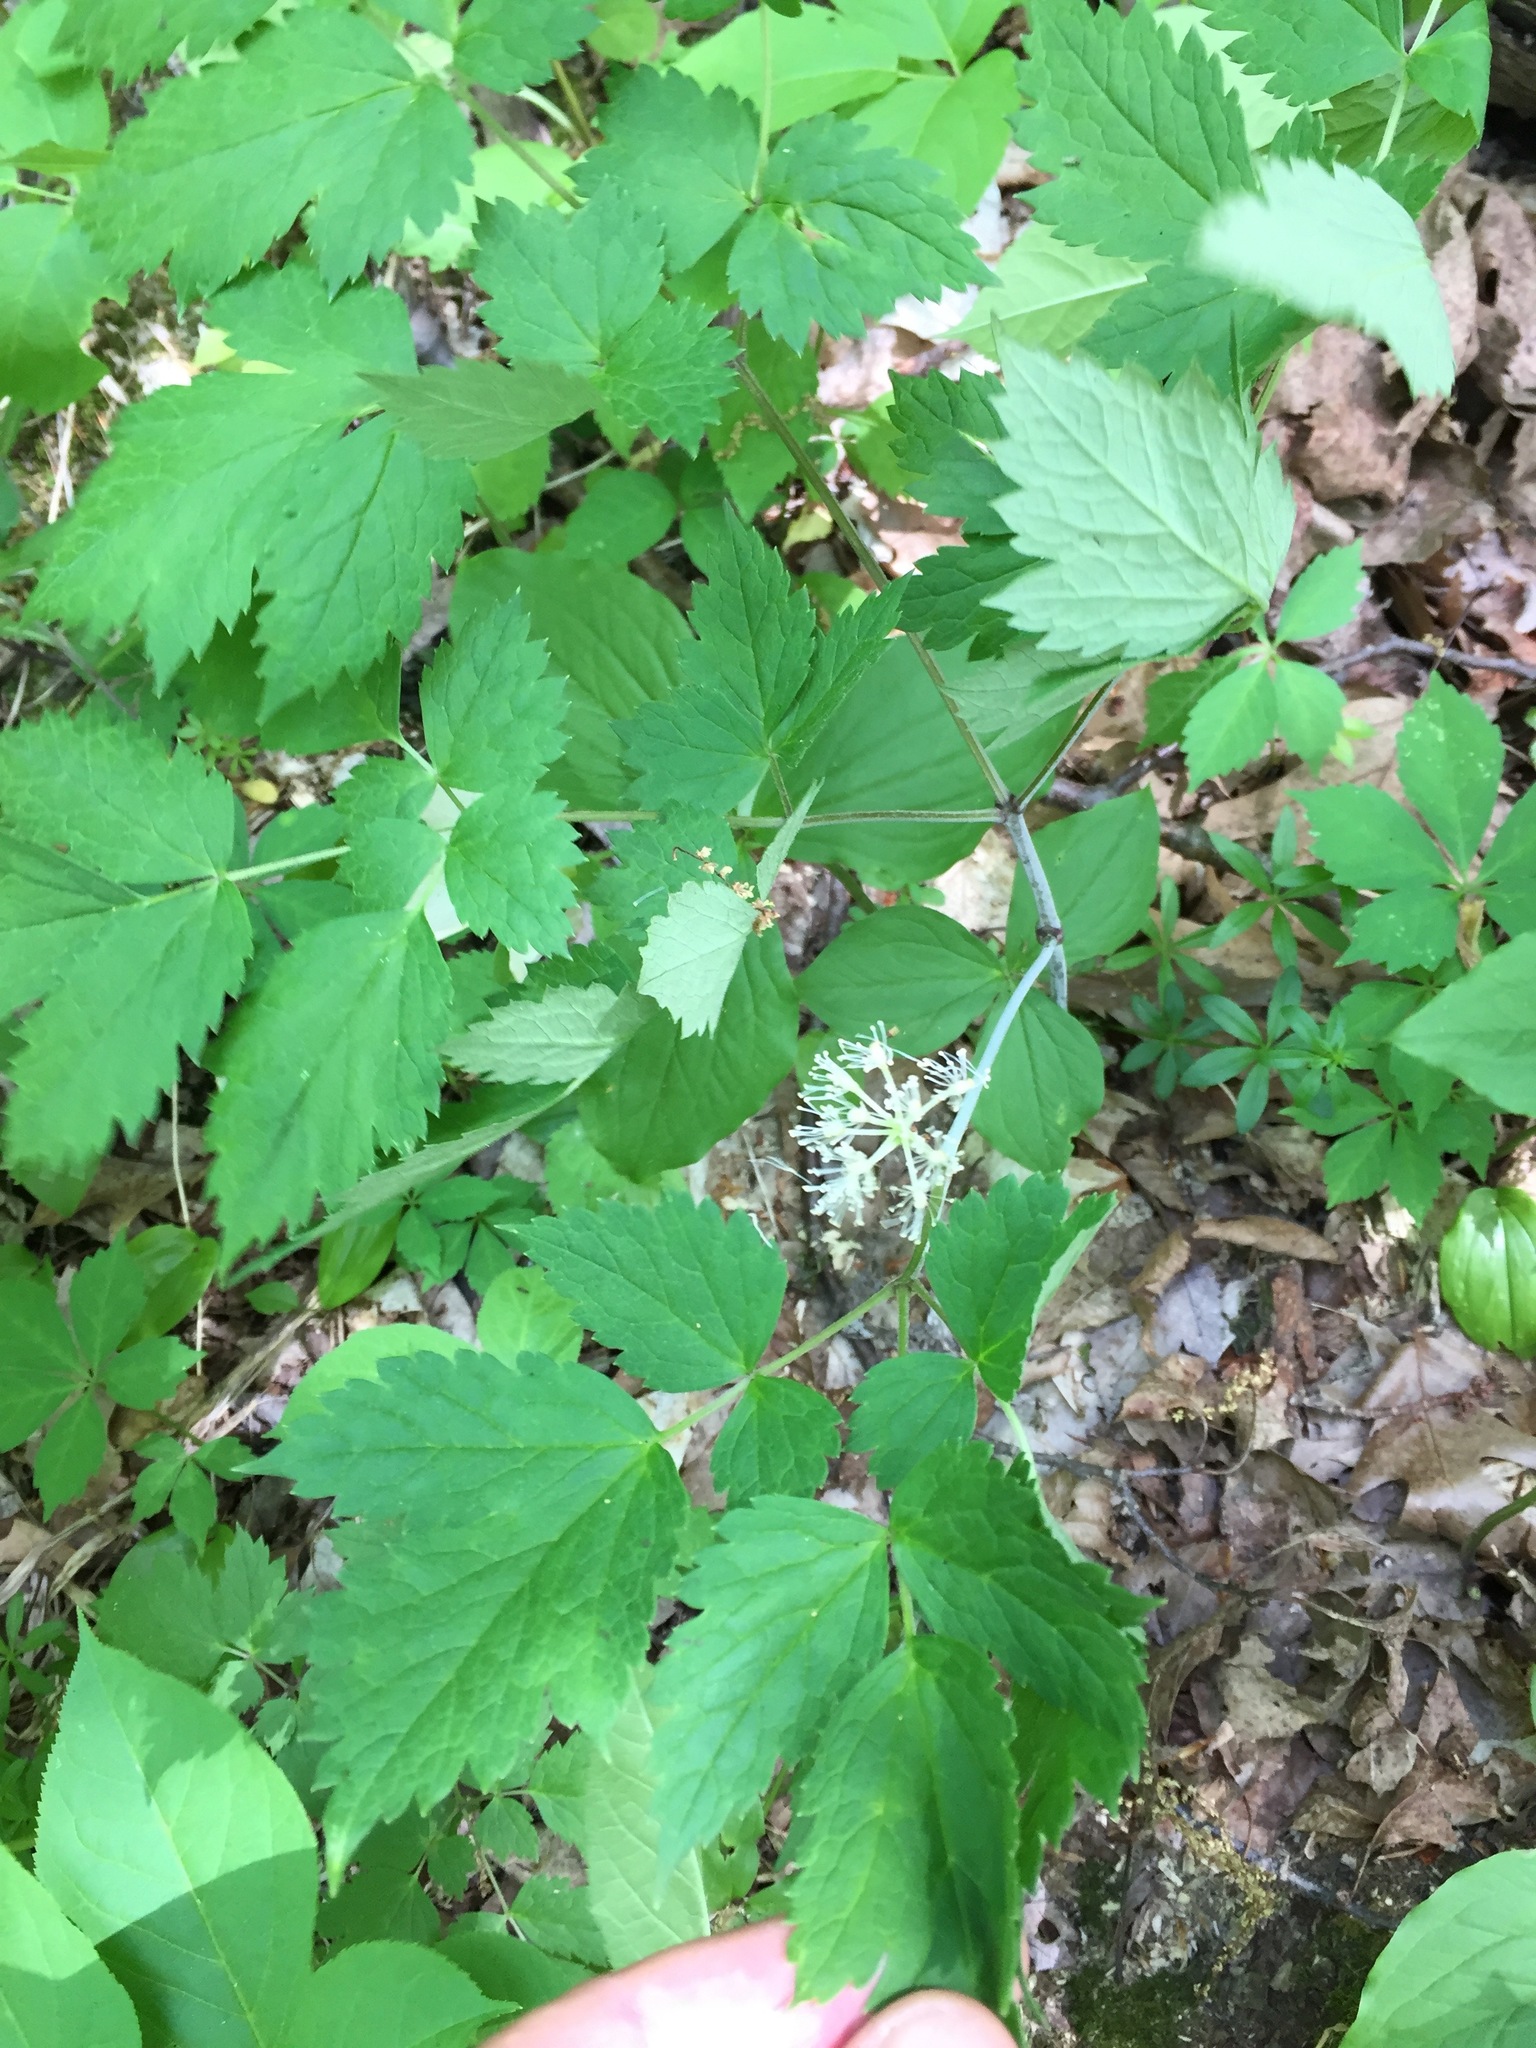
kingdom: Plantae
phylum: Tracheophyta
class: Magnoliopsida
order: Ranunculales
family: Ranunculaceae
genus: Actaea
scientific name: Actaea rubra
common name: Red baneberry
